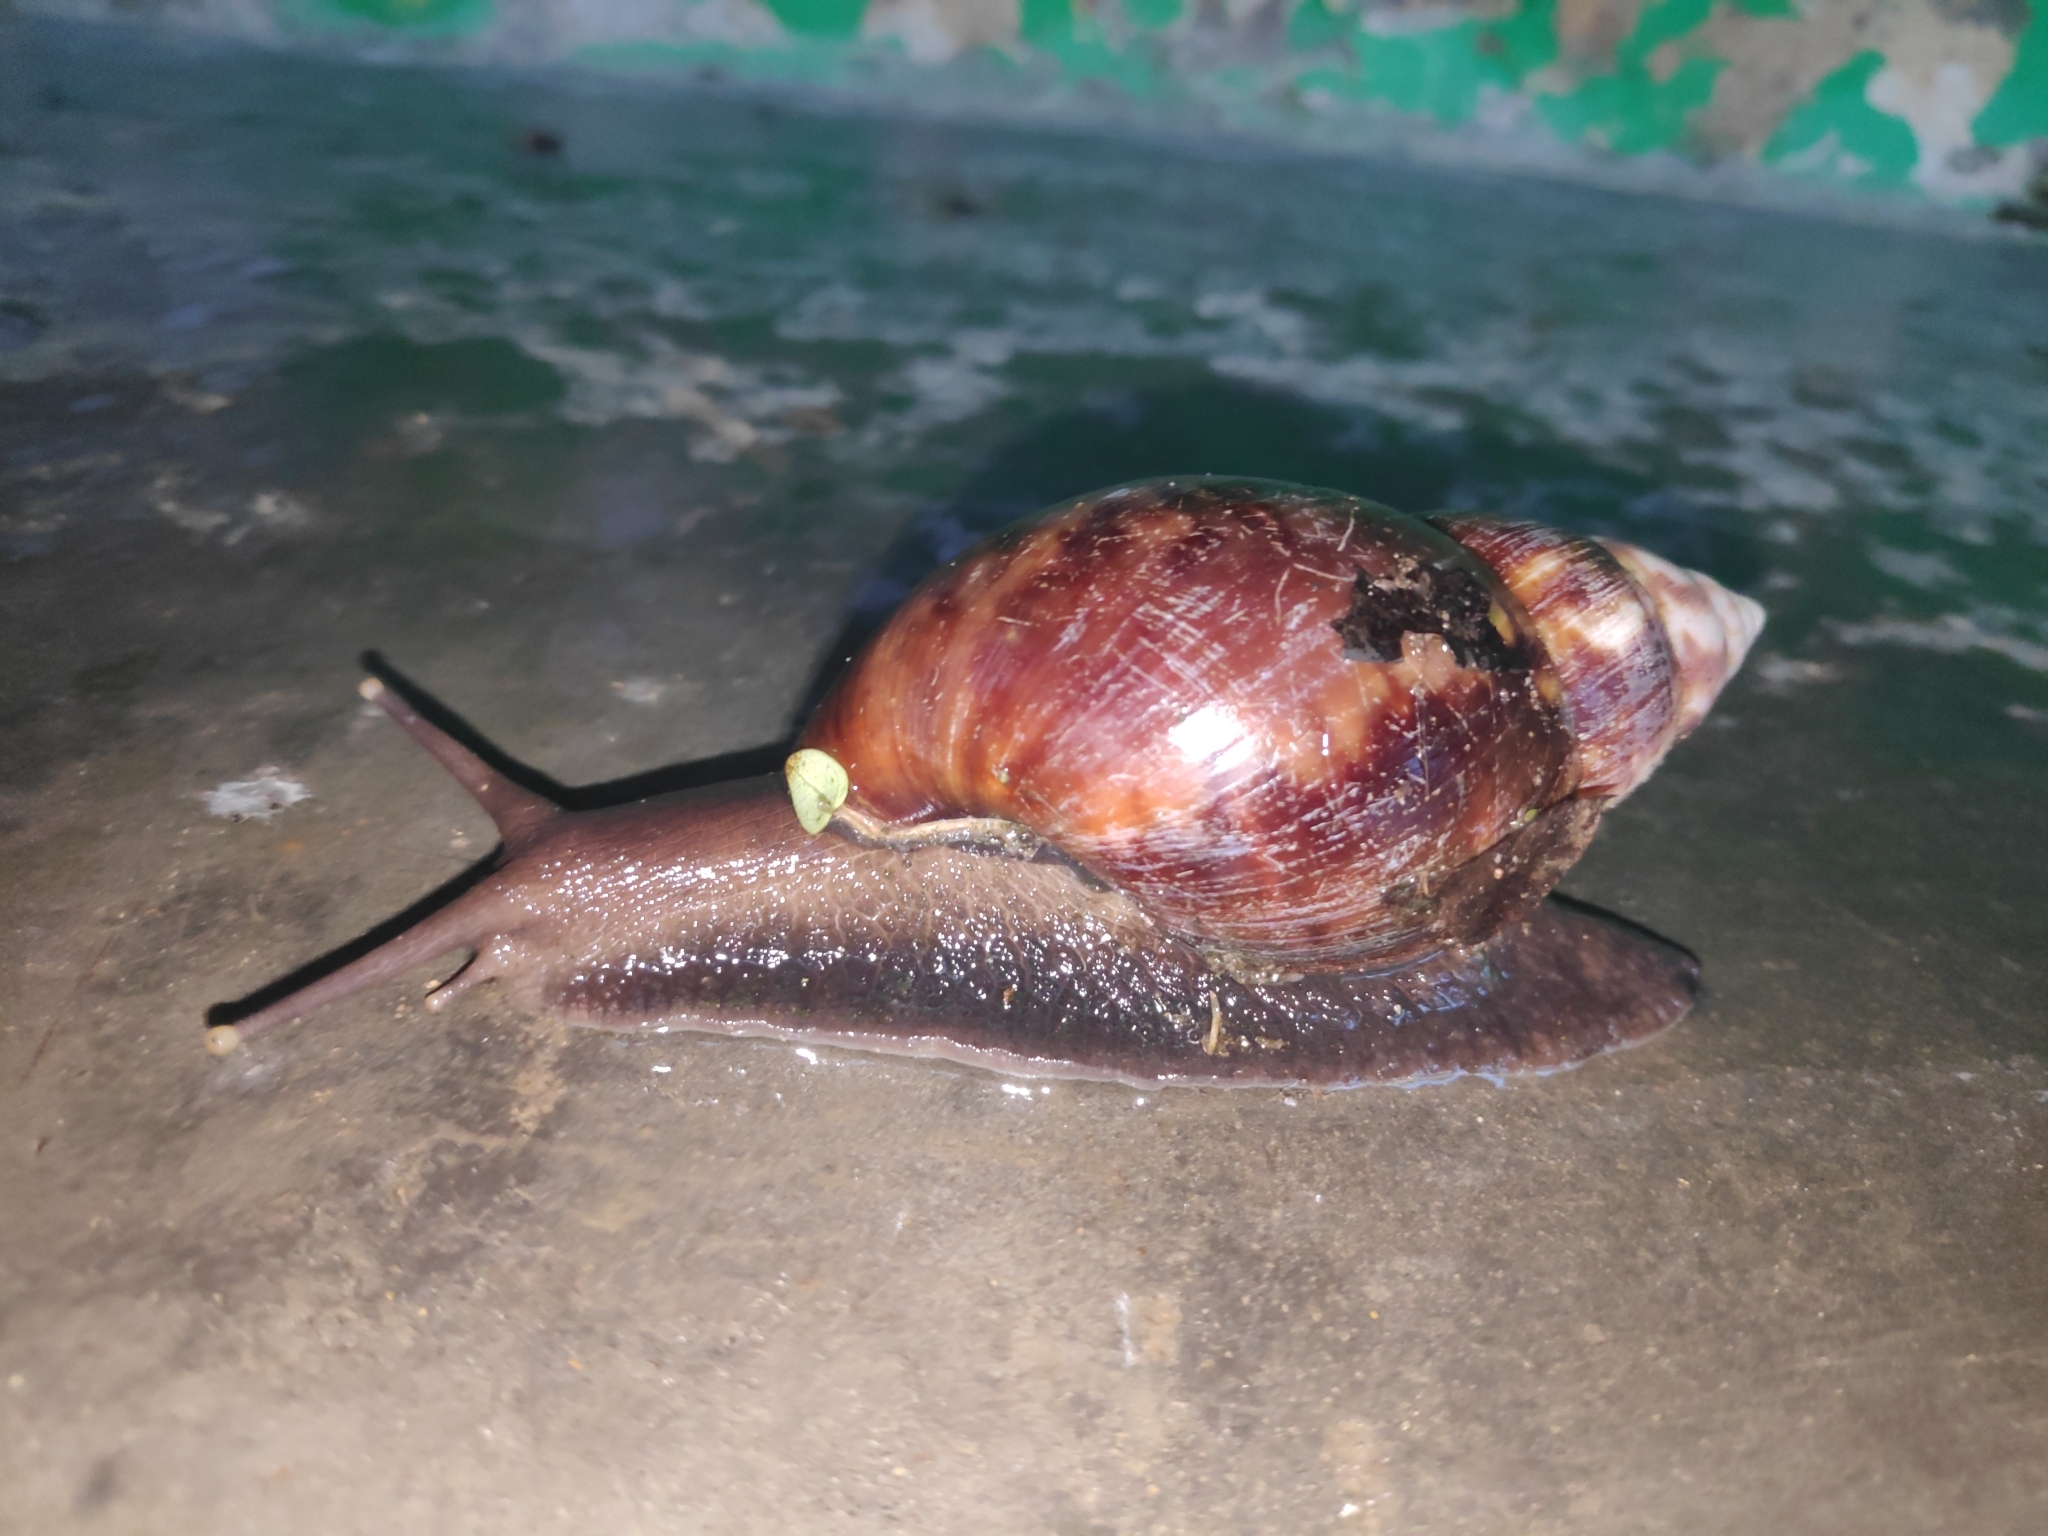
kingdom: Animalia
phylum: Mollusca
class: Gastropoda
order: Stylommatophora
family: Achatinidae
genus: Lissachatina
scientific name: Lissachatina fulica
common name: Giant african snail
